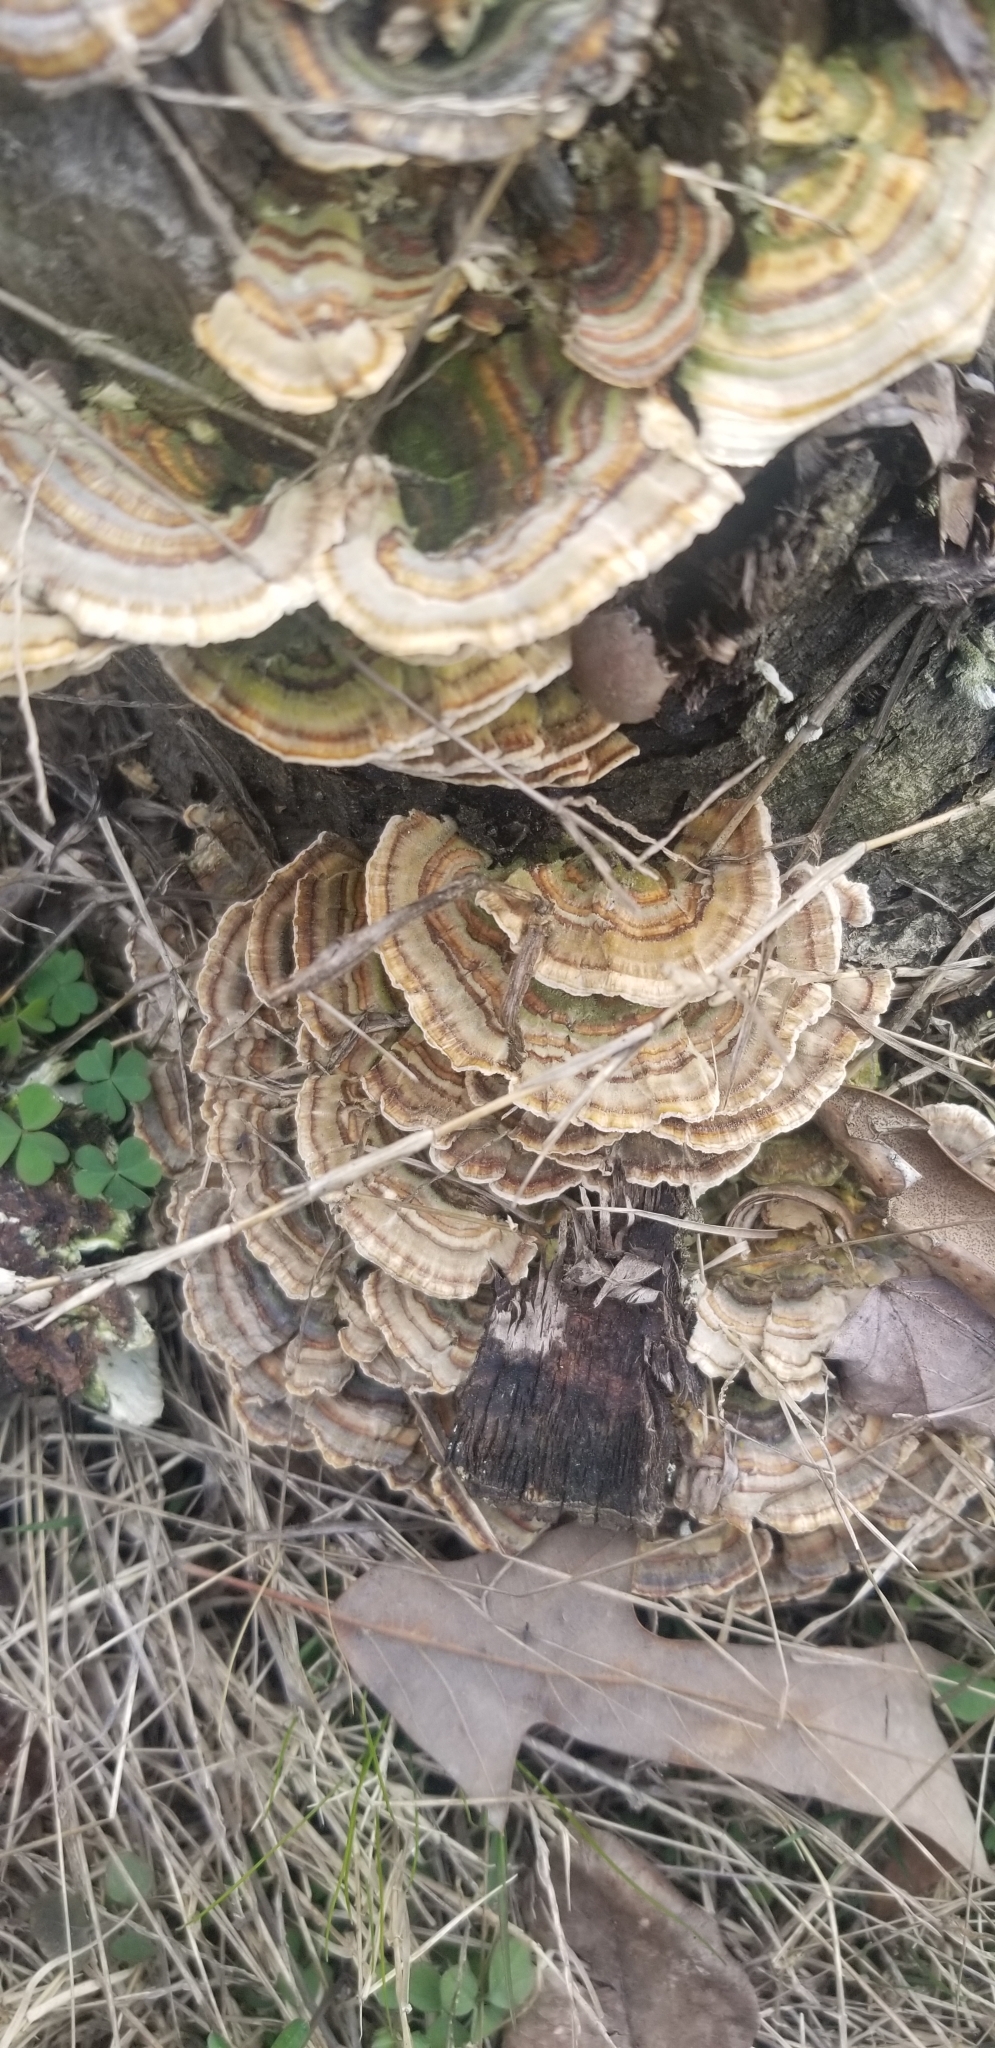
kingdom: Fungi
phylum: Basidiomycota
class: Agaricomycetes
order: Polyporales
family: Polyporaceae
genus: Trametes
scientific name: Trametes versicolor
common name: Turkeytail
